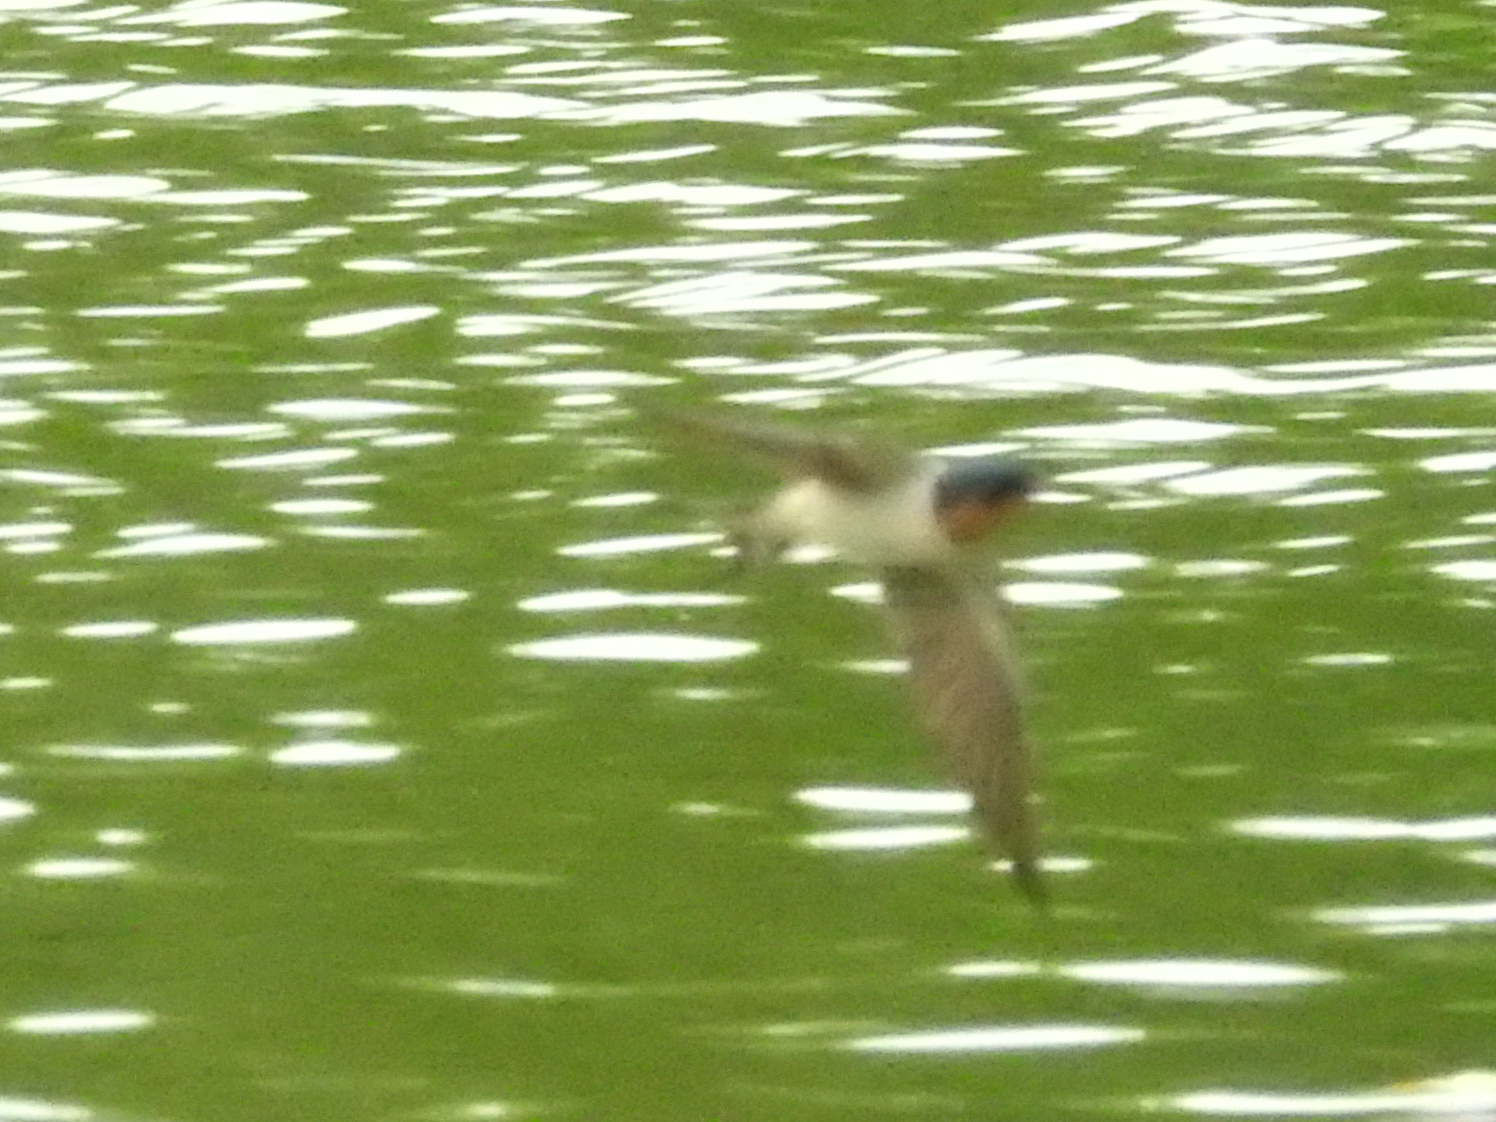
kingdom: Animalia
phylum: Chordata
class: Aves
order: Passeriformes
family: Hirundinidae
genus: Hirundo
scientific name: Hirundo rustica
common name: Barn swallow
